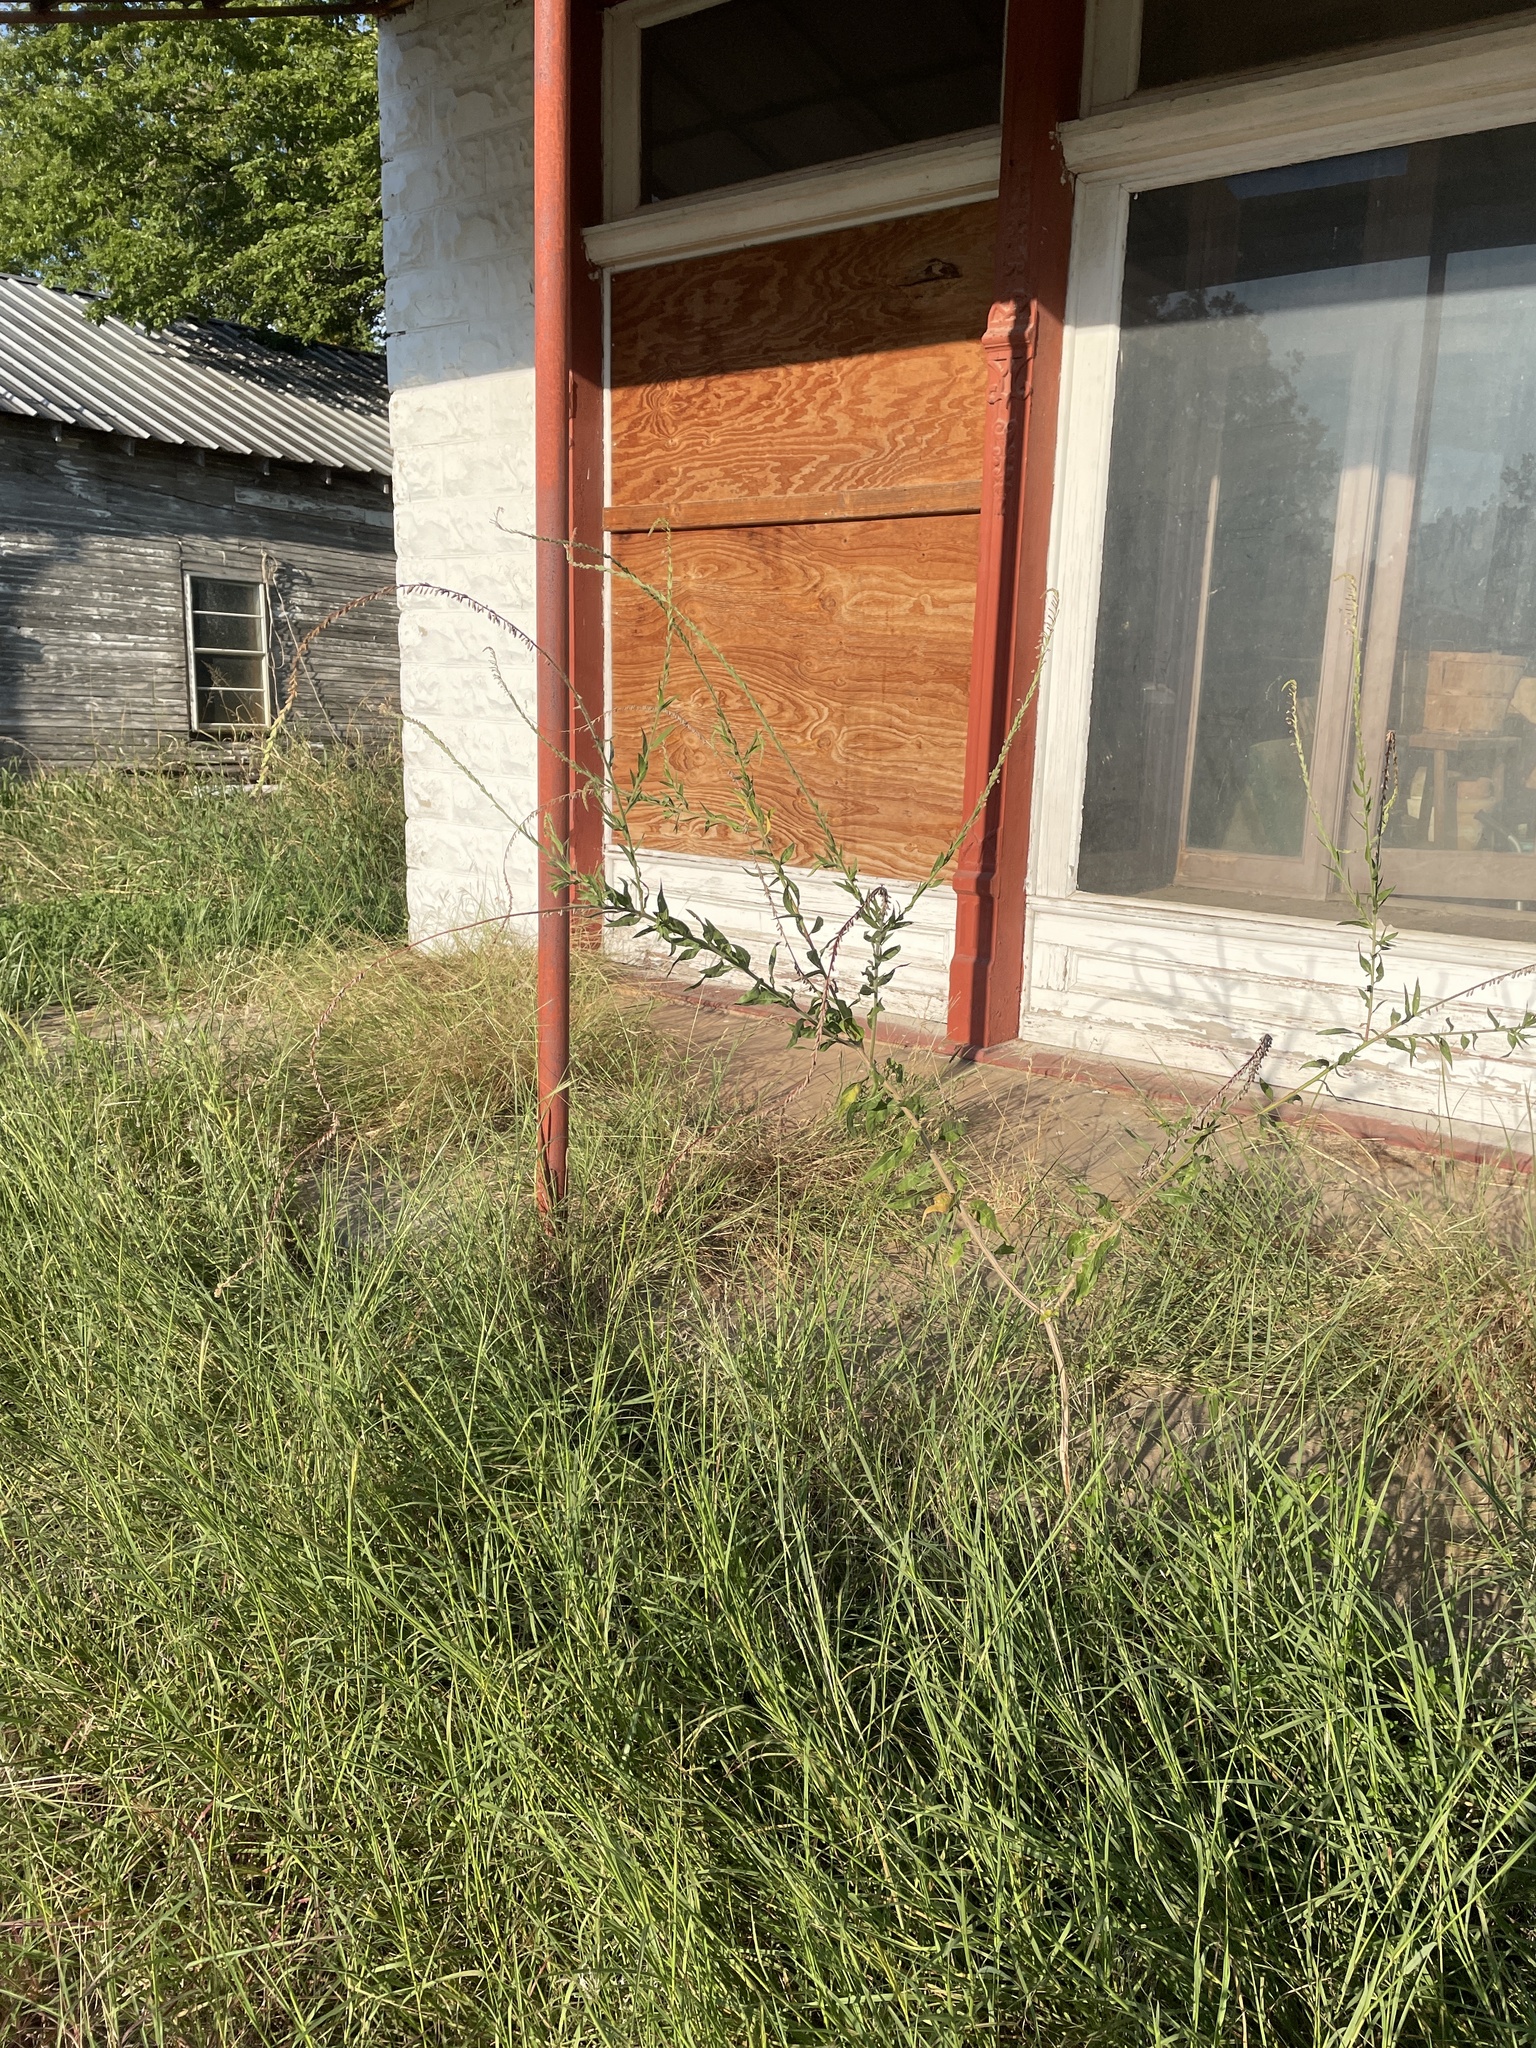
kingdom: Plantae
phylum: Tracheophyta
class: Magnoliopsida
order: Myrtales
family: Onagraceae
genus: Oenothera
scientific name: Oenothera curtiflora
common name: Velvetweed
